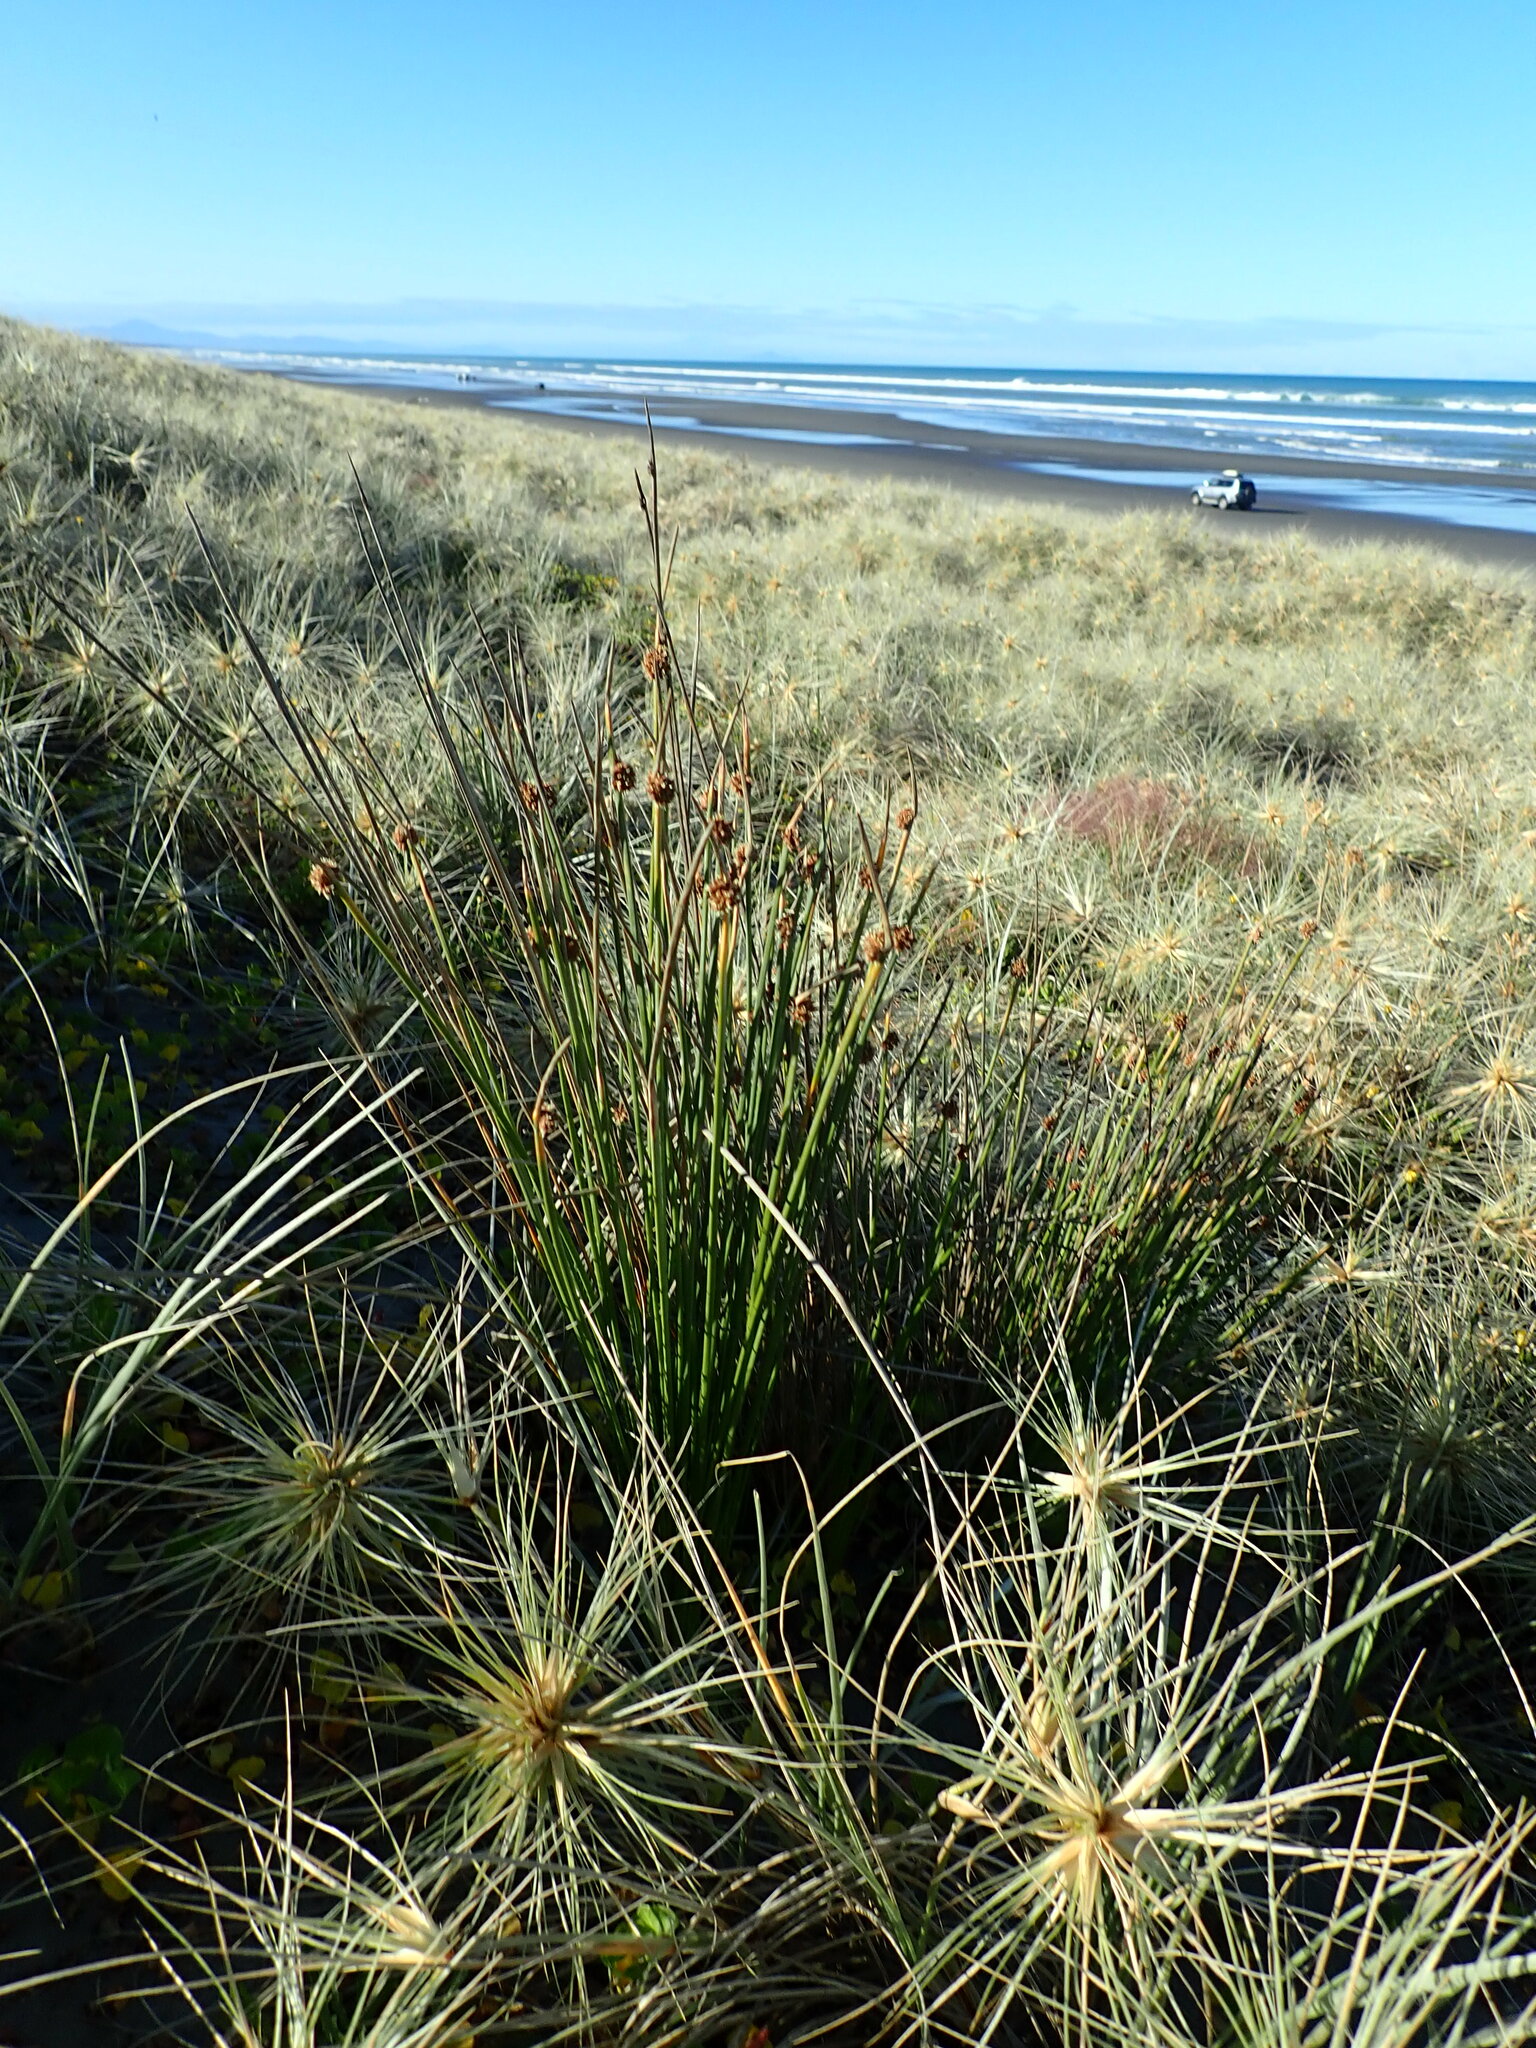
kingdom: Plantae
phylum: Tracheophyta
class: Liliopsida
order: Poales
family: Cyperaceae
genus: Ficinia
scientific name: Ficinia nodosa
